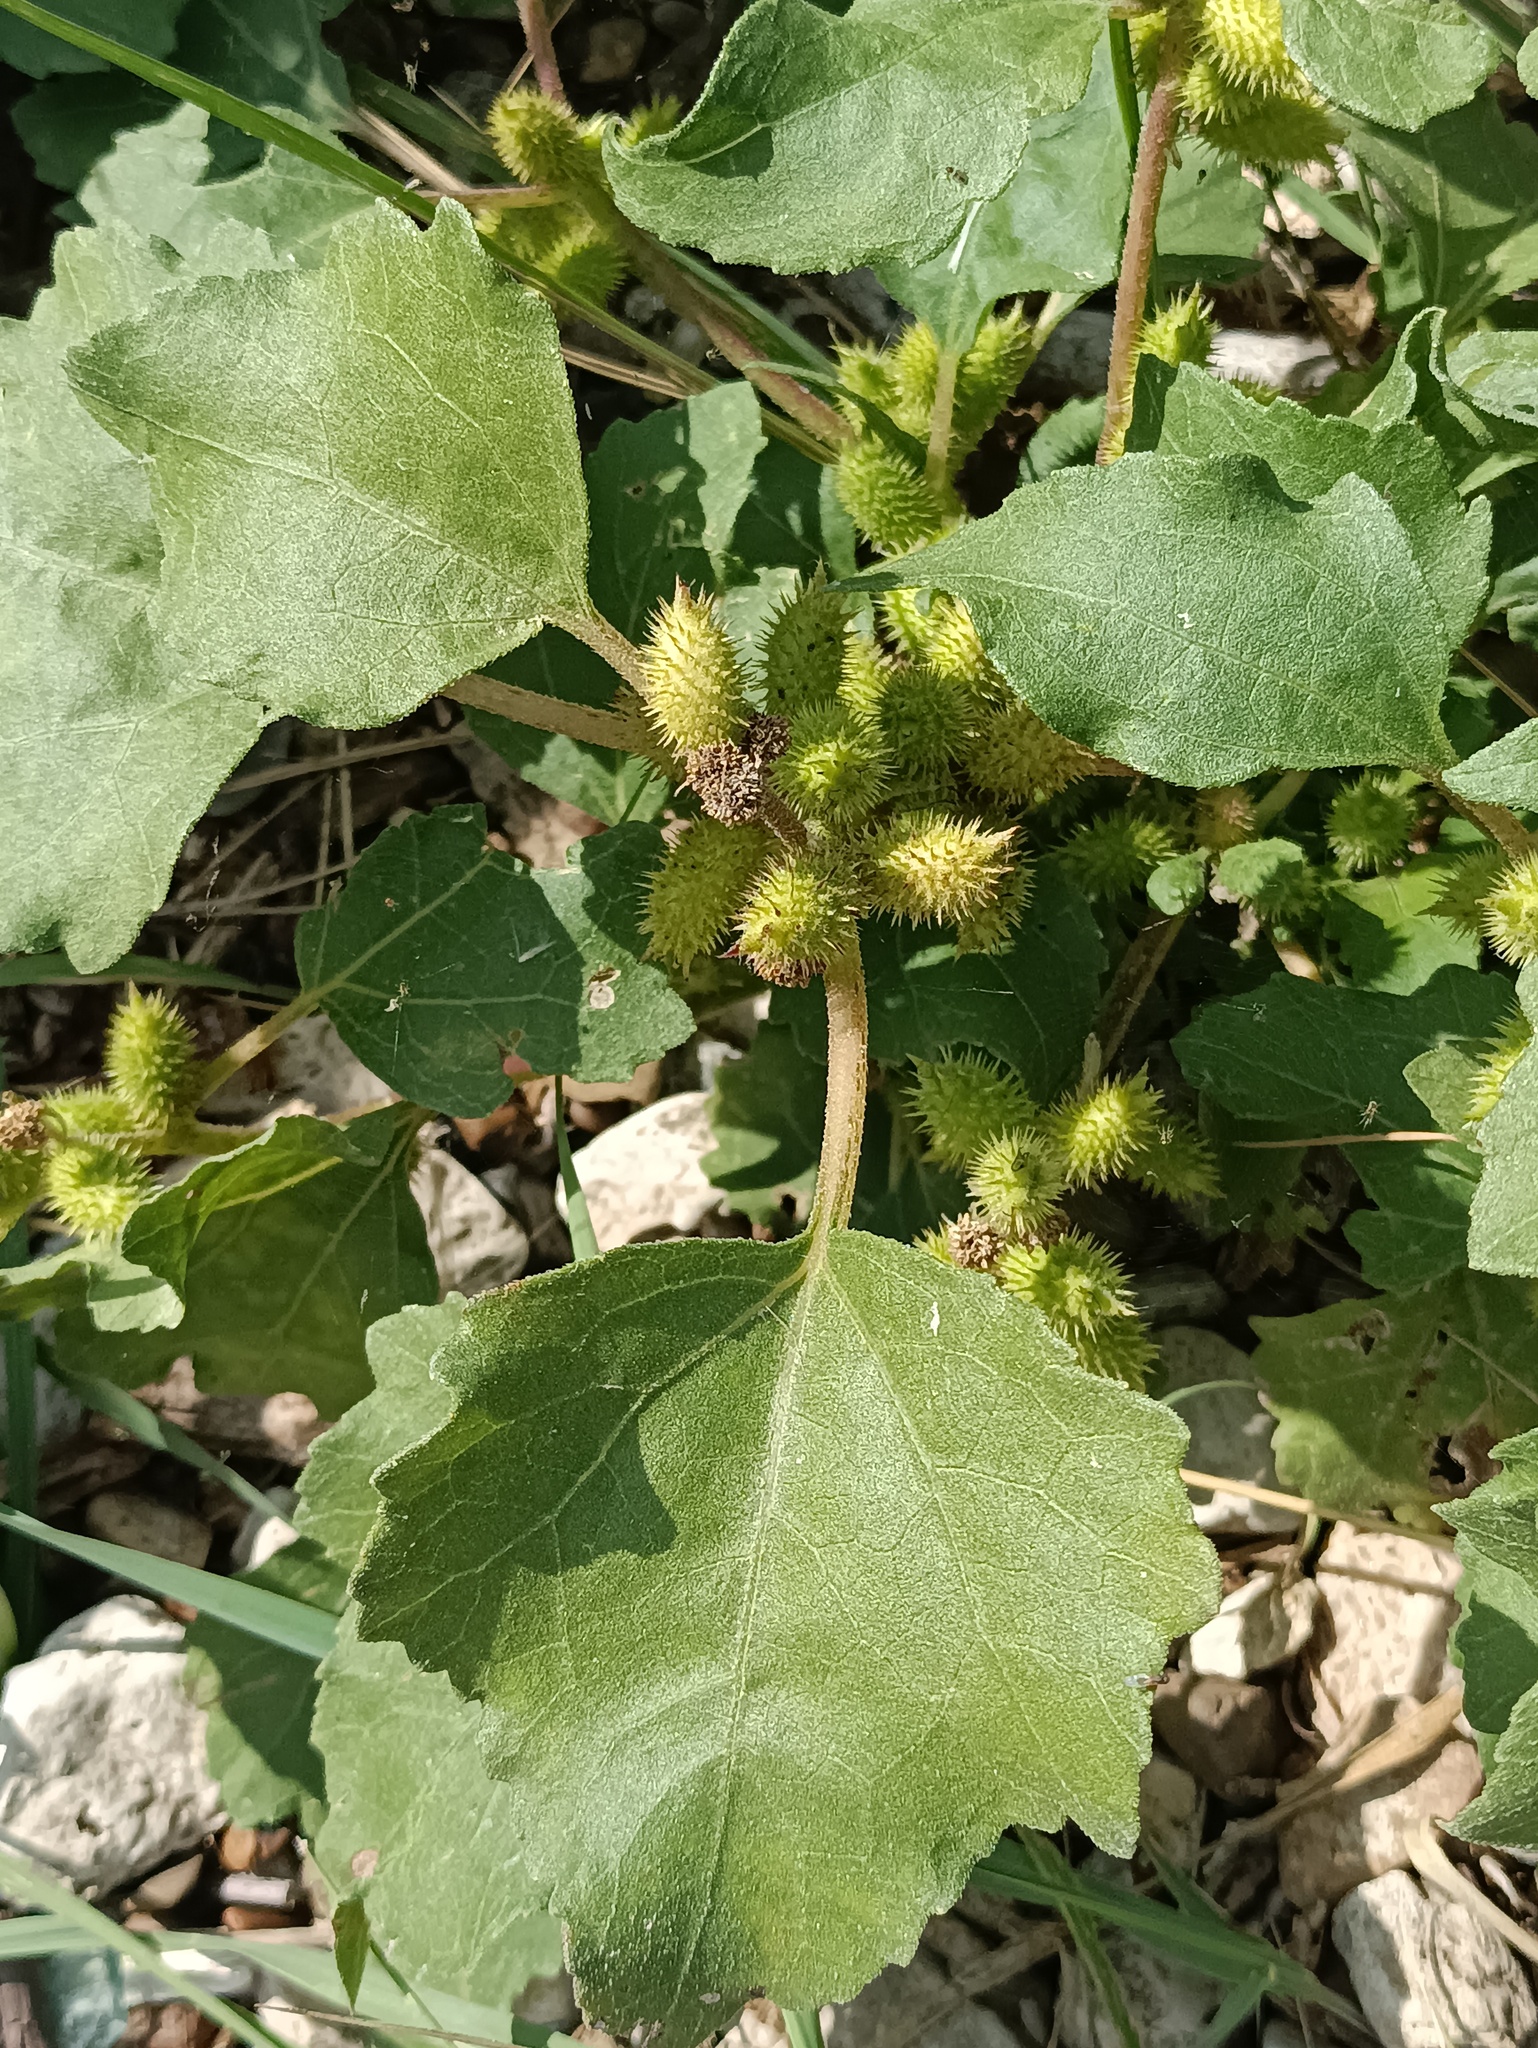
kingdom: Plantae
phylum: Tracheophyta
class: Magnoliopsida
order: Asterales
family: Asteraceae
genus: Xanthium
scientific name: Xanthium orientale
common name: Californian burr
